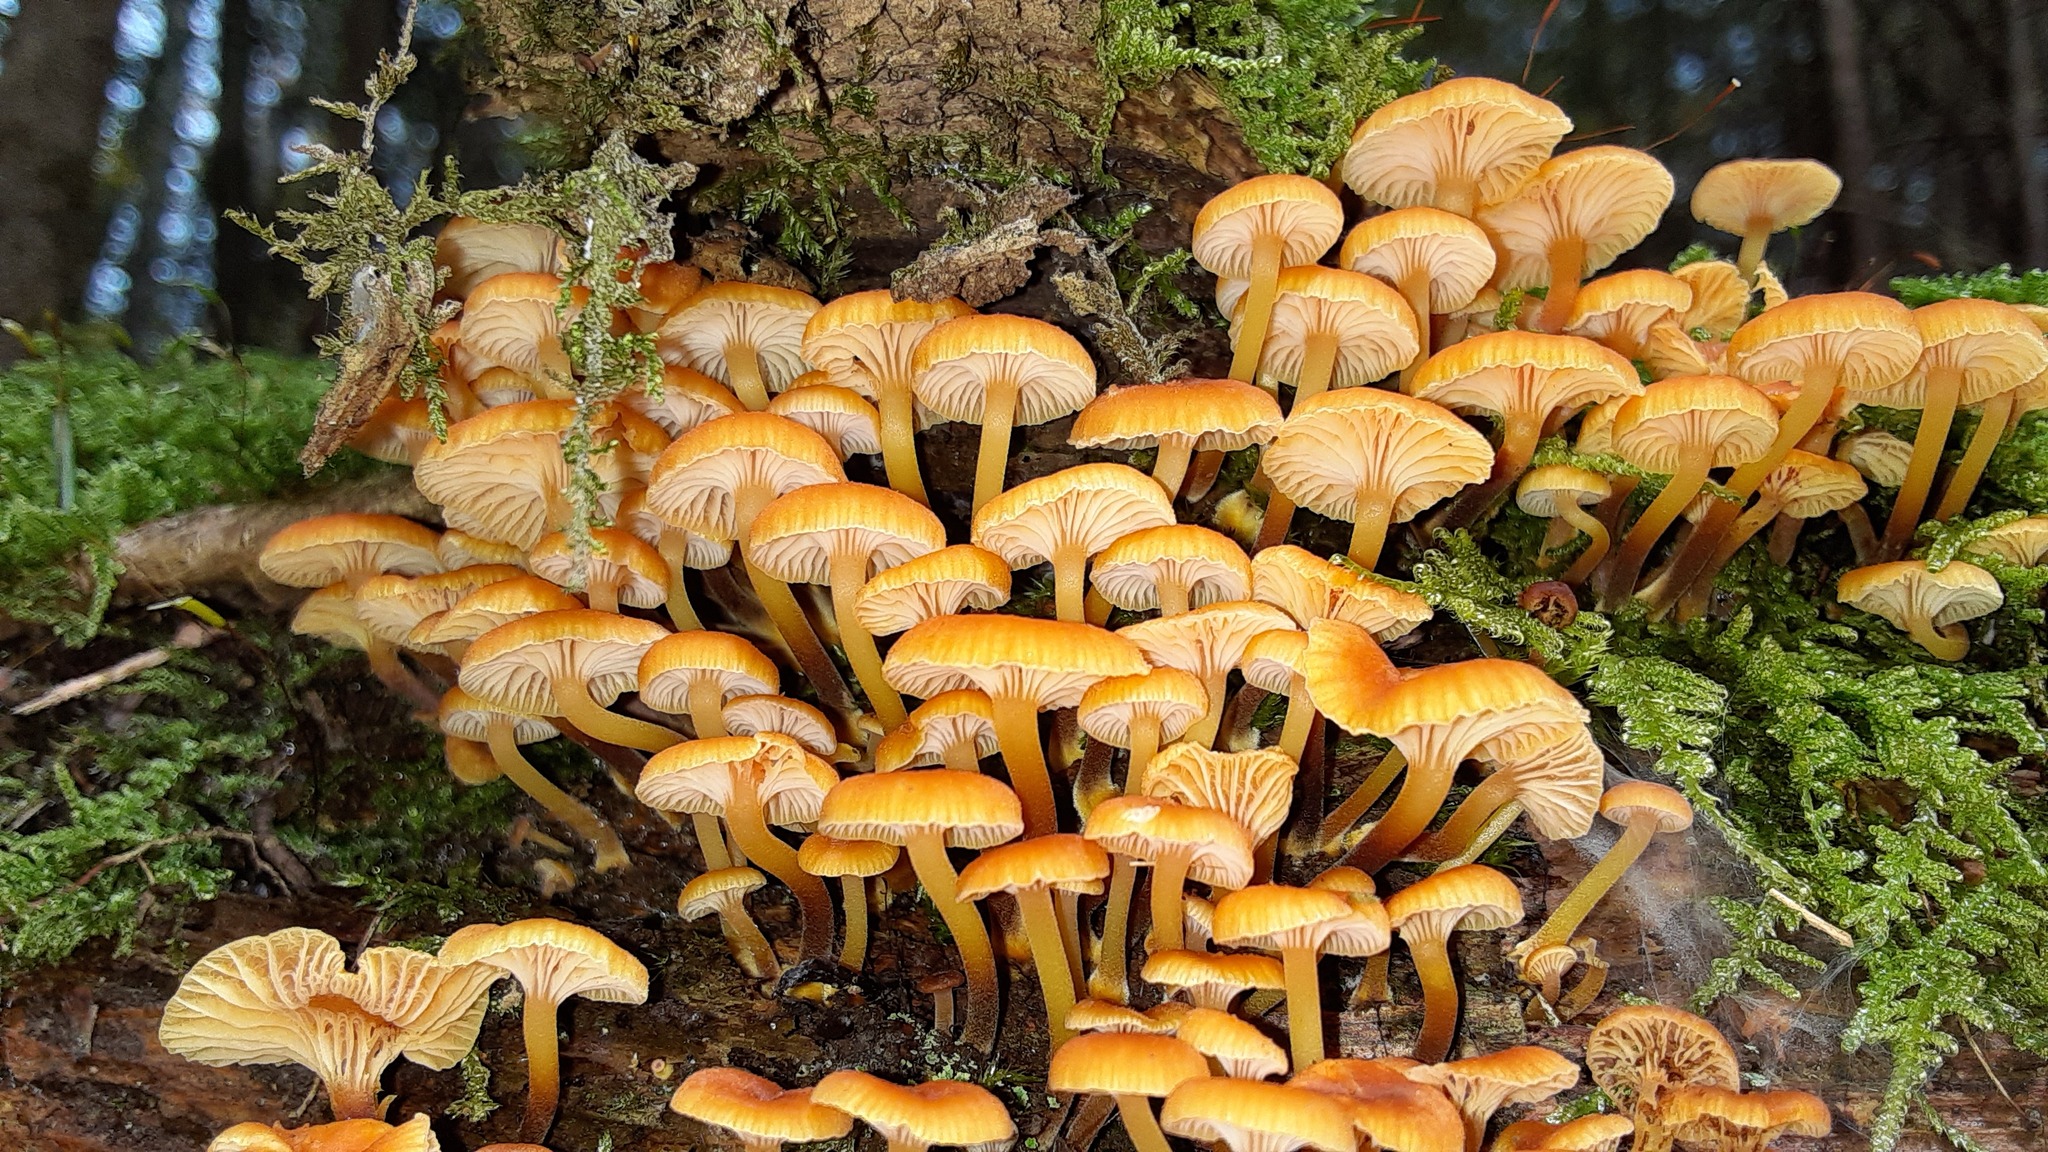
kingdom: Fungi
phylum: Basidiomycota
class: Agaricomycetes
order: Agaricales
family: Mycenaceae
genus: Xeromphalina
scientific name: Xeromphalina campanella
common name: Pinewood gingertail
